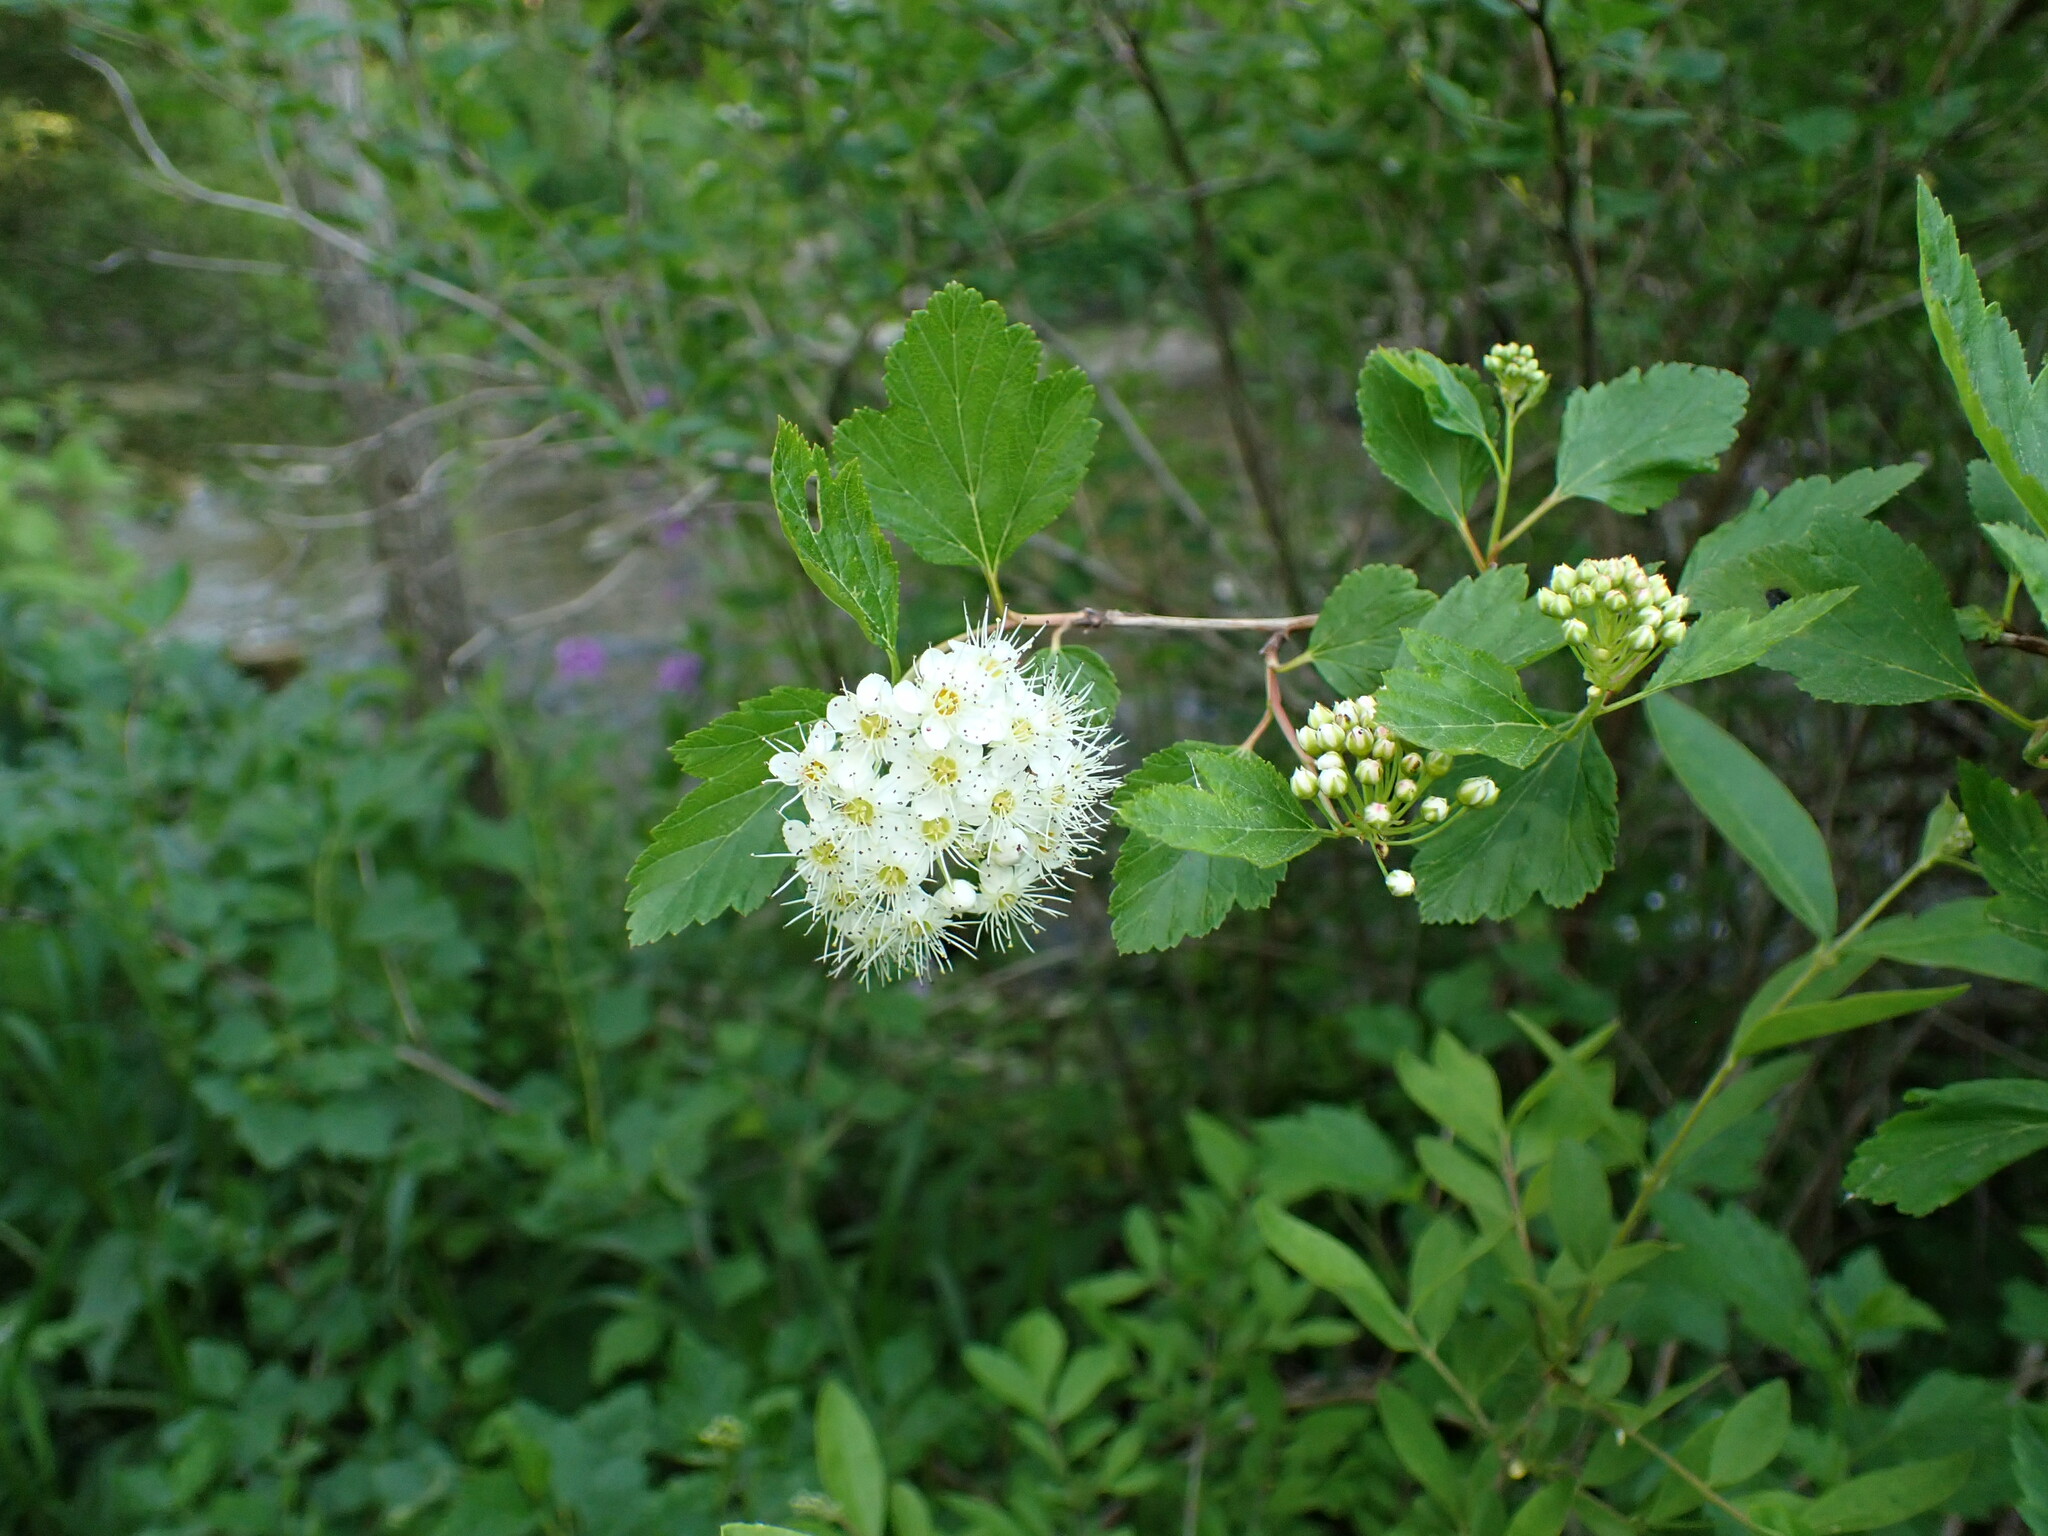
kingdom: Plantae
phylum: Tracheophyta
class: Magnoliopsida
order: Rosales
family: Rosaceae
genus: Physocarpus
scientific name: Physocarpus opulifolius
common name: Ninebark
